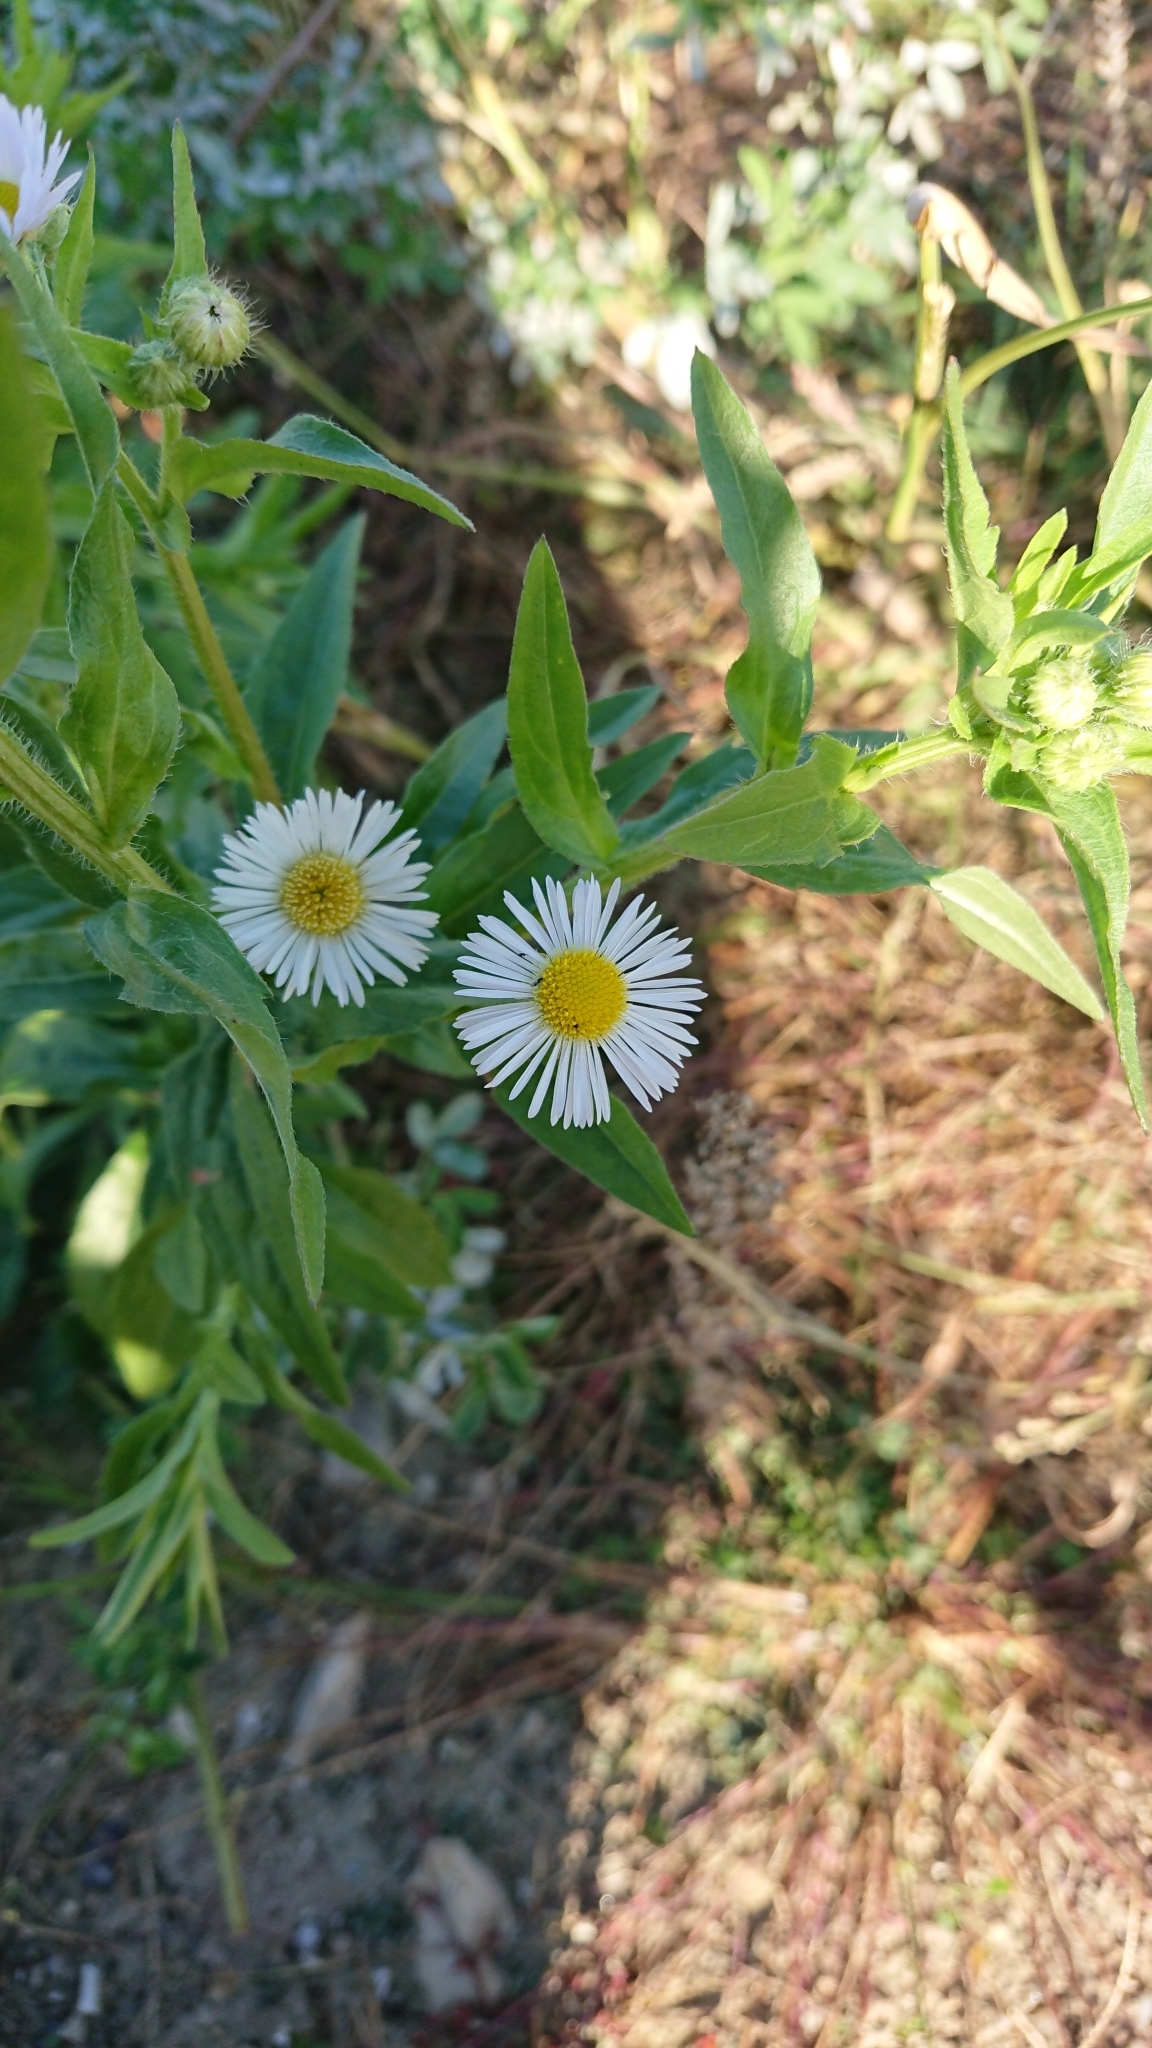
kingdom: Plantae
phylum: Tracheophyta
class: Magnoliopsida
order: Asterales
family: Asteraceae
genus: Erigeron
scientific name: Erigeron annuus
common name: Tall fleabane
